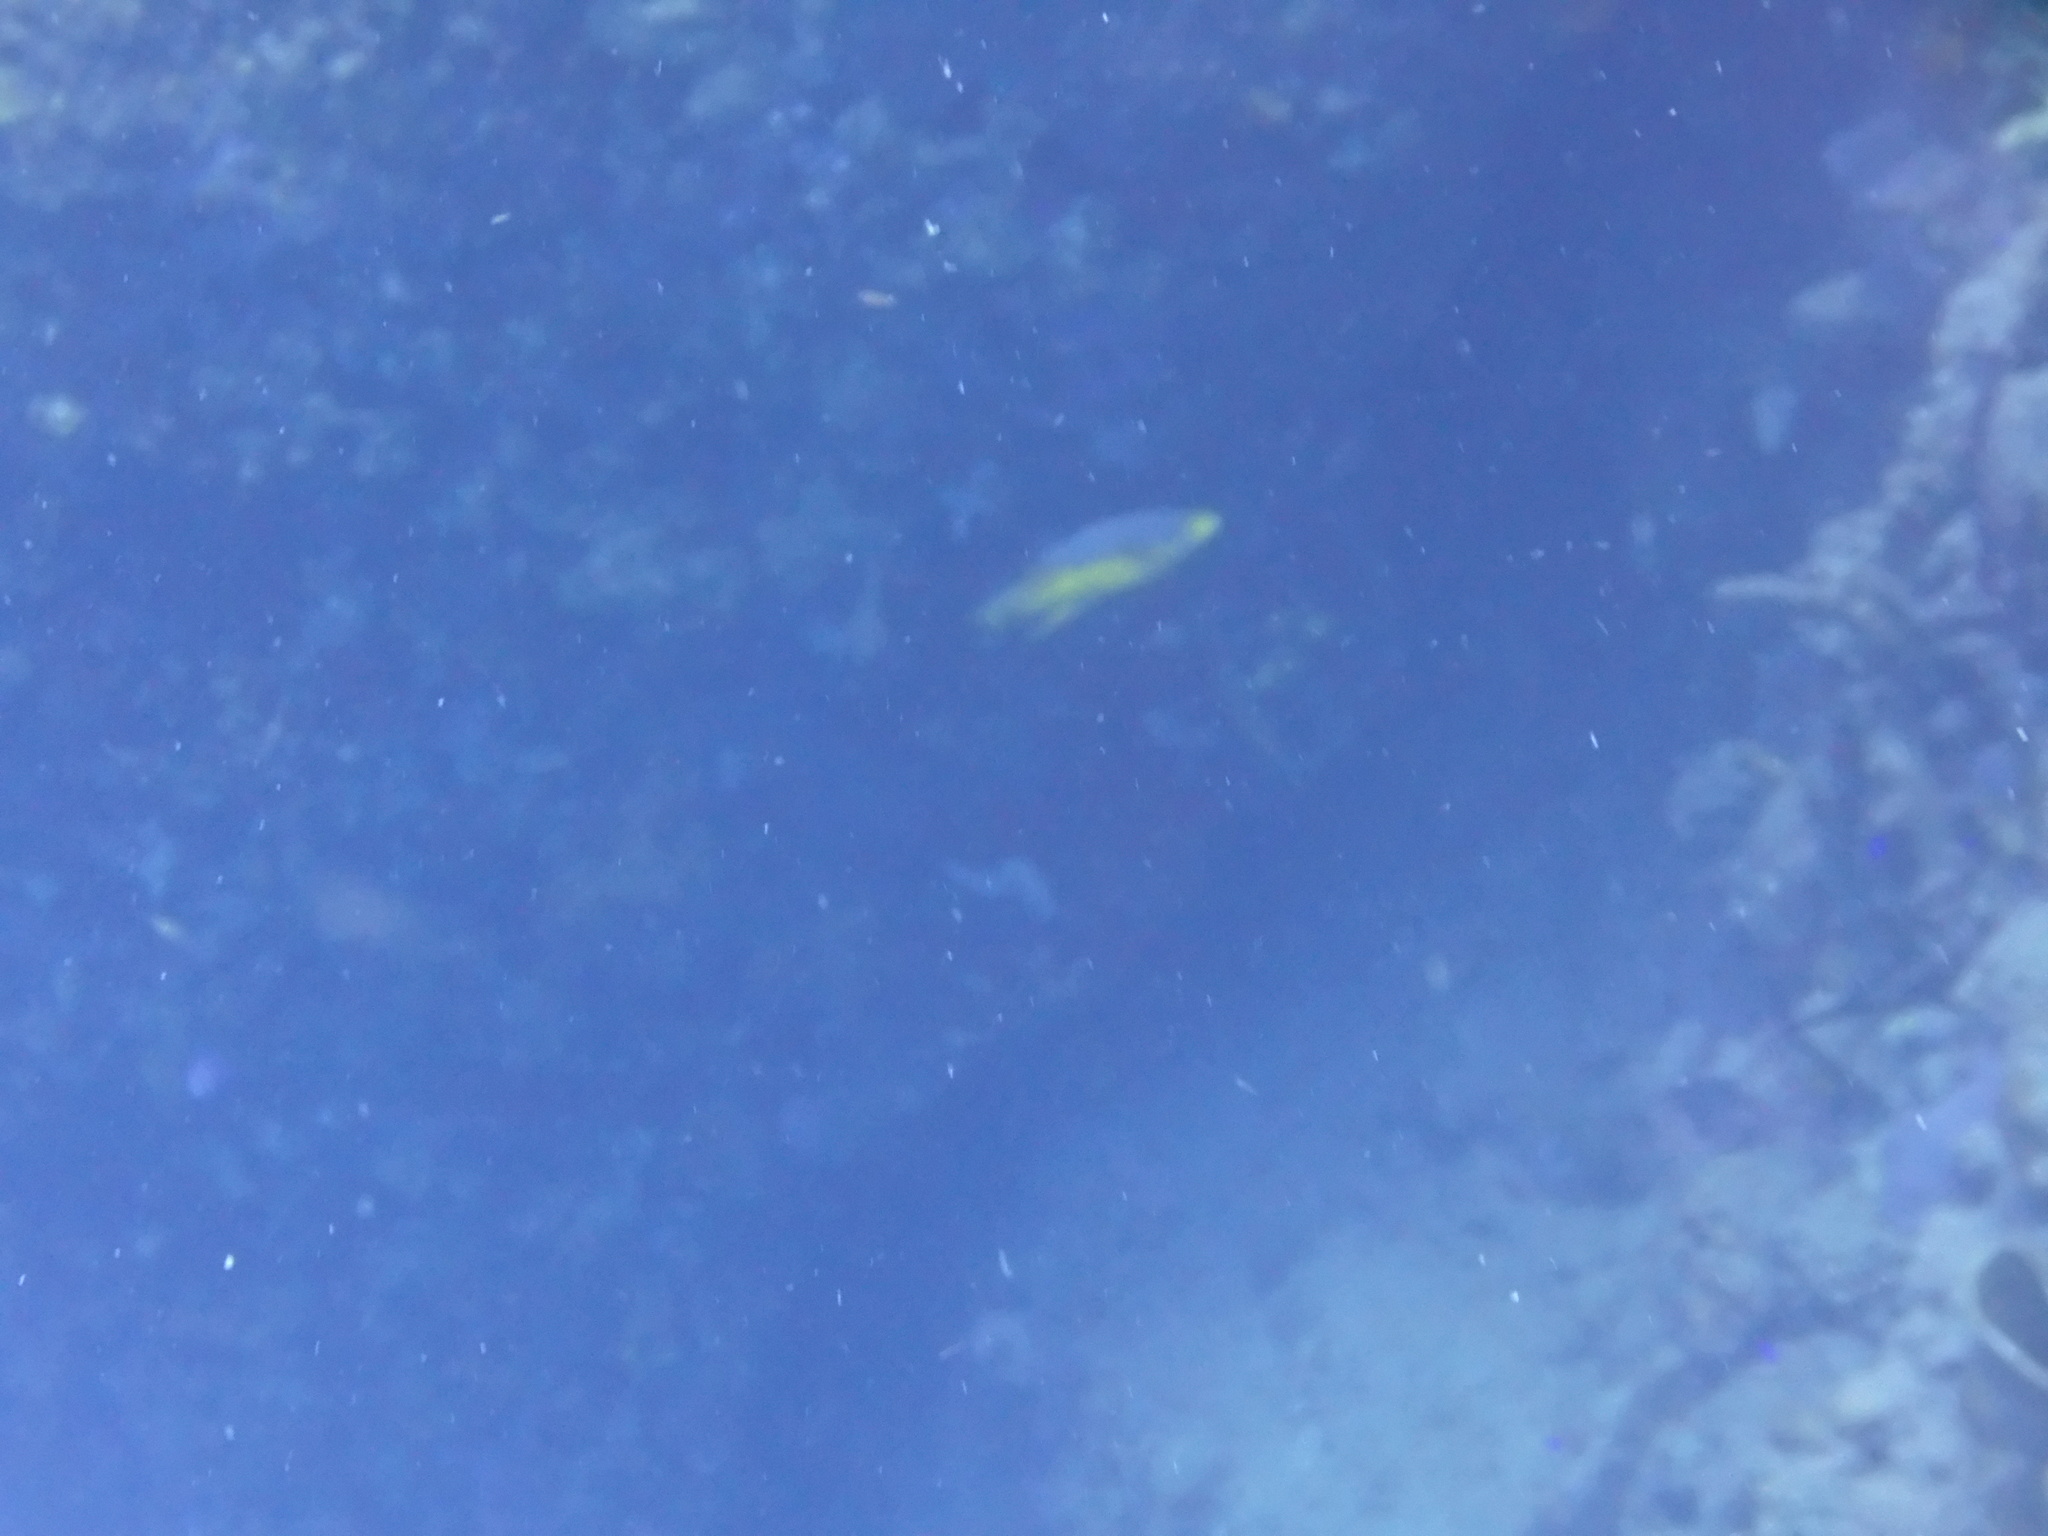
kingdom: Animalia
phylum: Chordata
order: Perciformes
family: Labridae
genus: Bodianus
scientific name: Bodianus rufus
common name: Spanish hogfish
